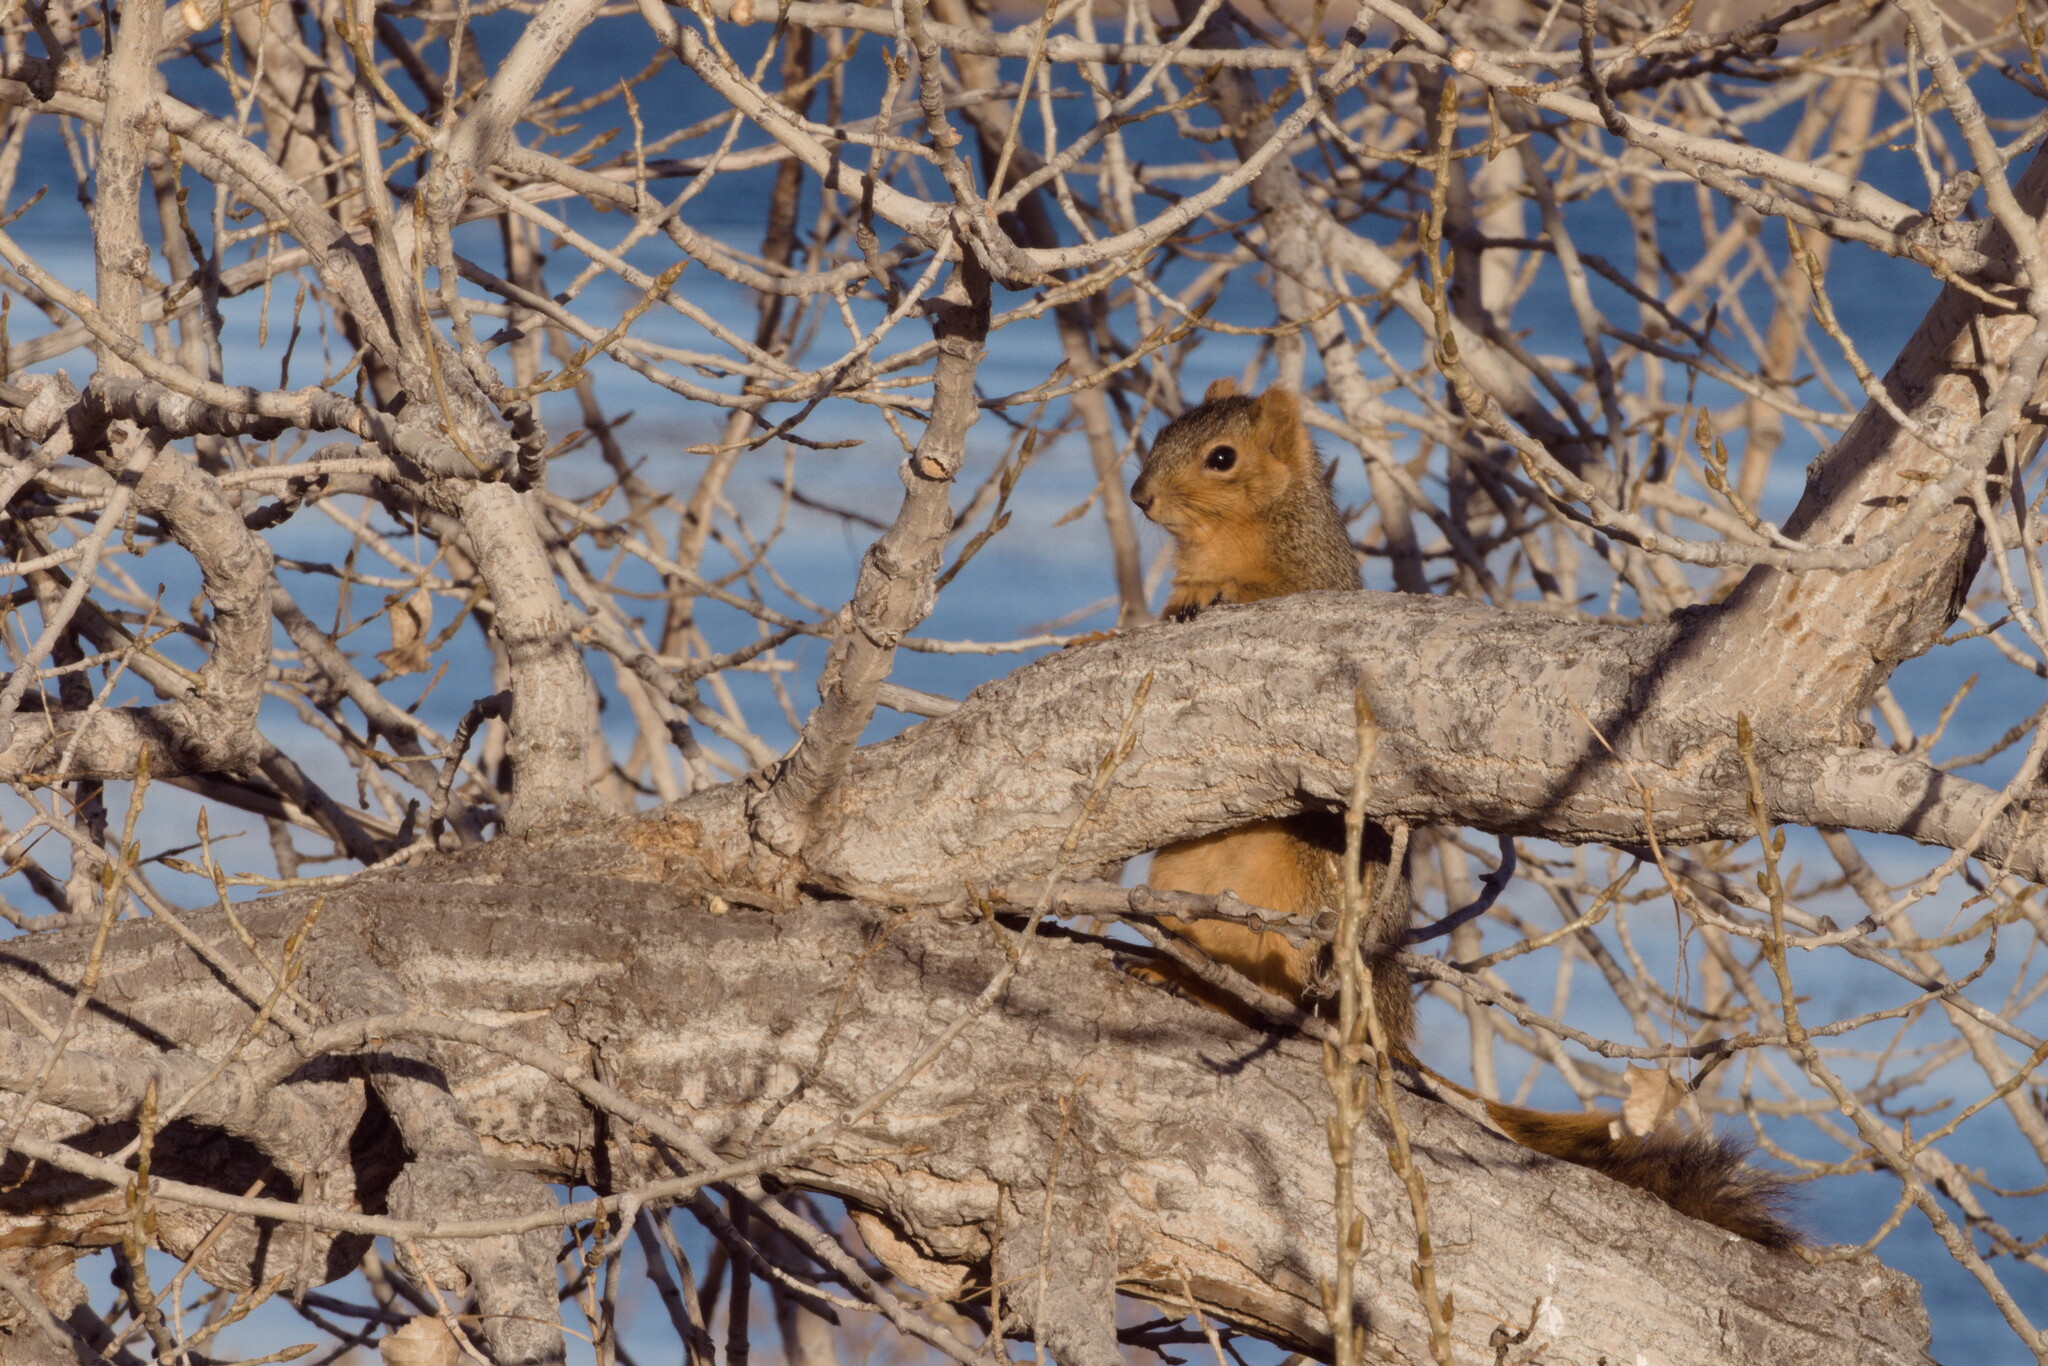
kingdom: Animalia
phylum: Chordata
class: Mammalia
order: Rodentia
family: Sciuridae
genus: Sciurus
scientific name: Sciurus niger
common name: Fox squirrel
